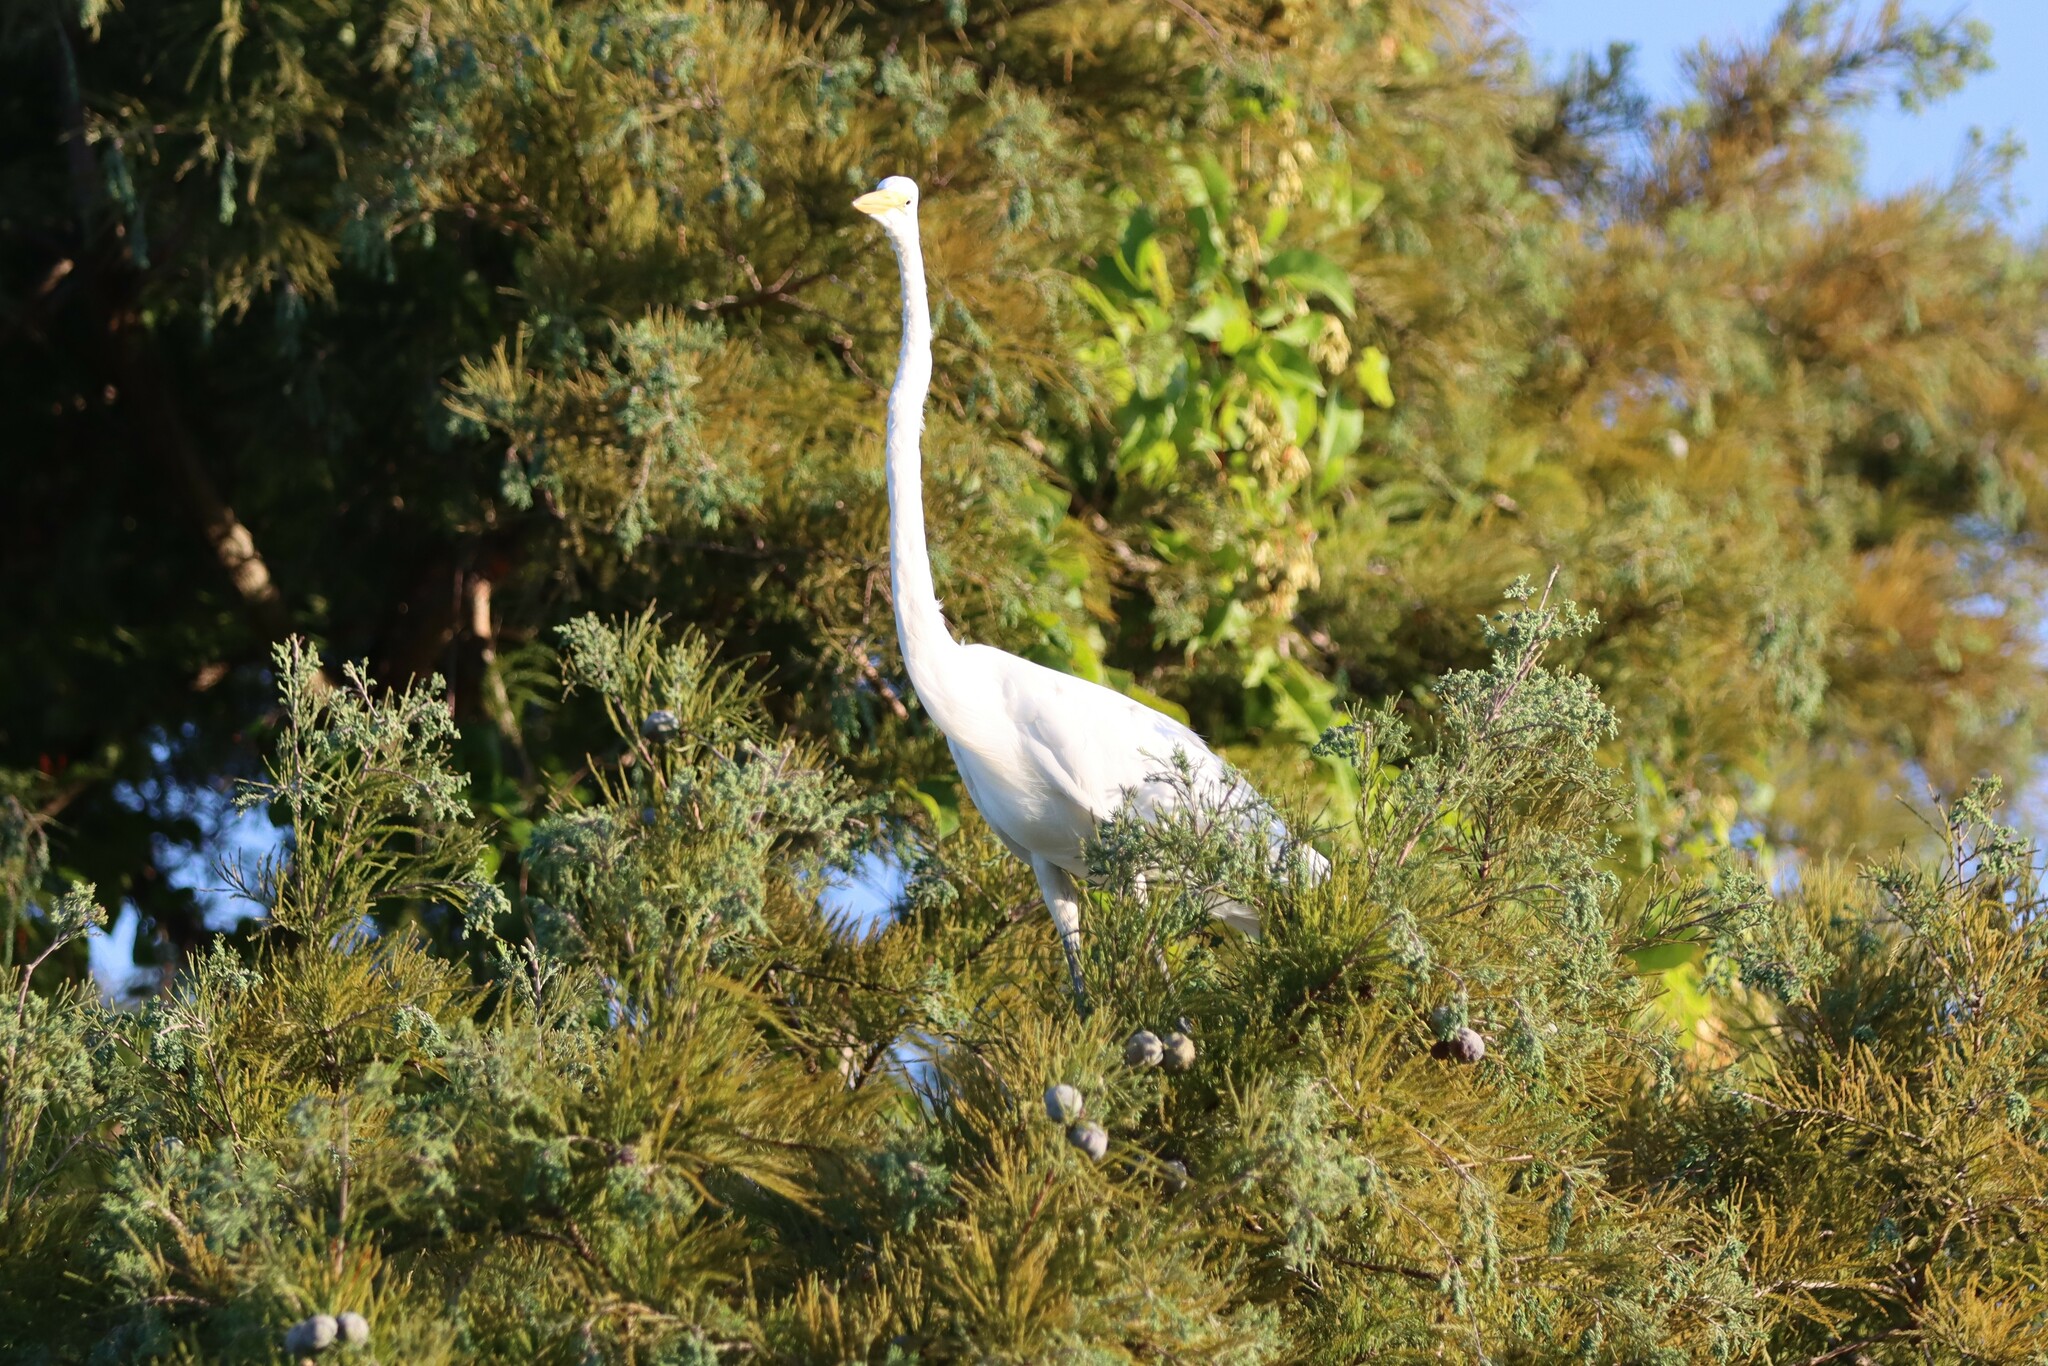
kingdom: Animalia
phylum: Chordata
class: Aves
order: Pelecaniformes
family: Ardeidae
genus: Ardea
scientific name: Ardea alba
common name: Great egret
